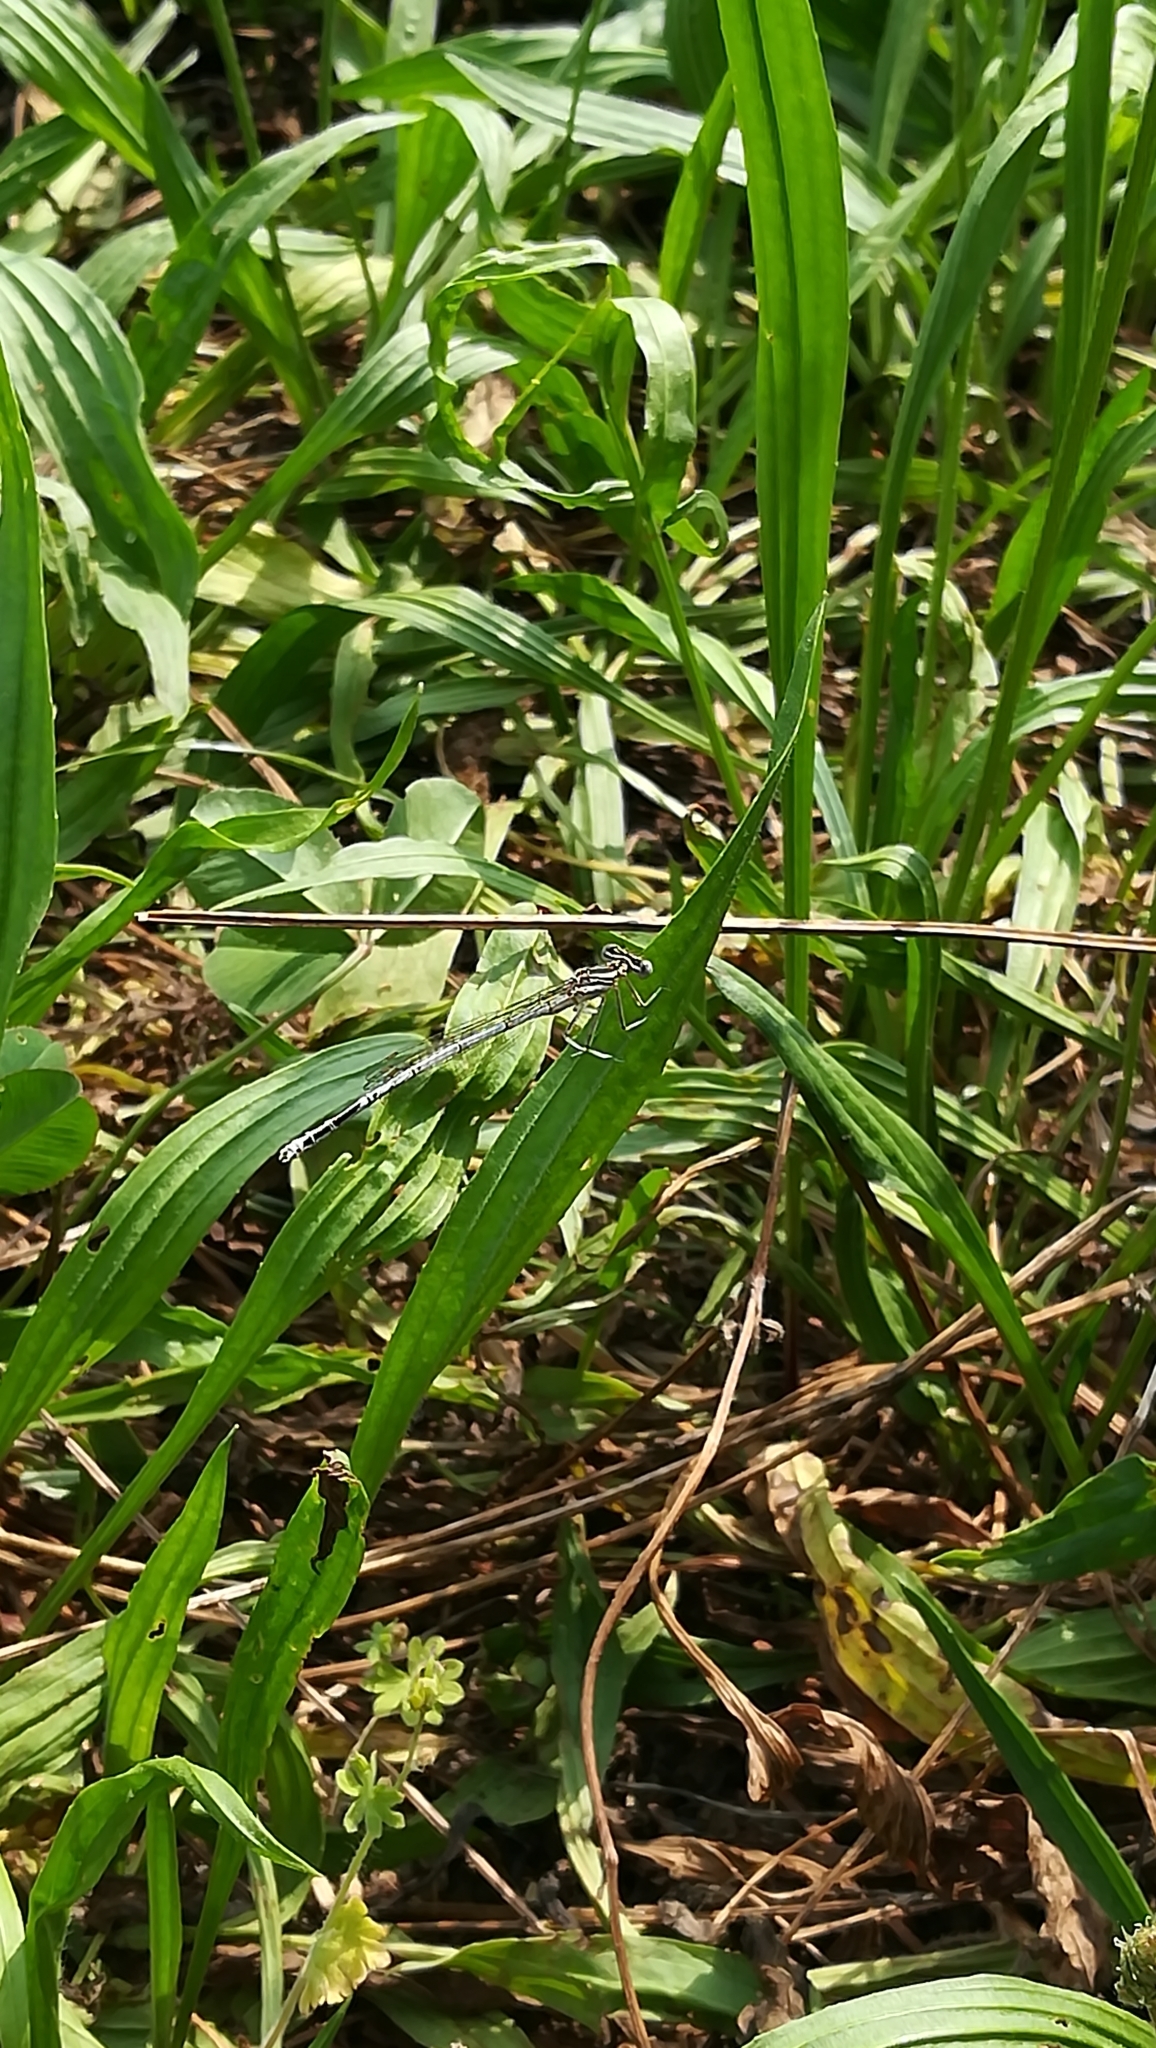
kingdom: Animalia
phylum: Arthropoda
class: Insecta
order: Odonata
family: Platycnemididae
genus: Platycnemis
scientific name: Platycnemis pennipes
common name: White-legged damselfly
